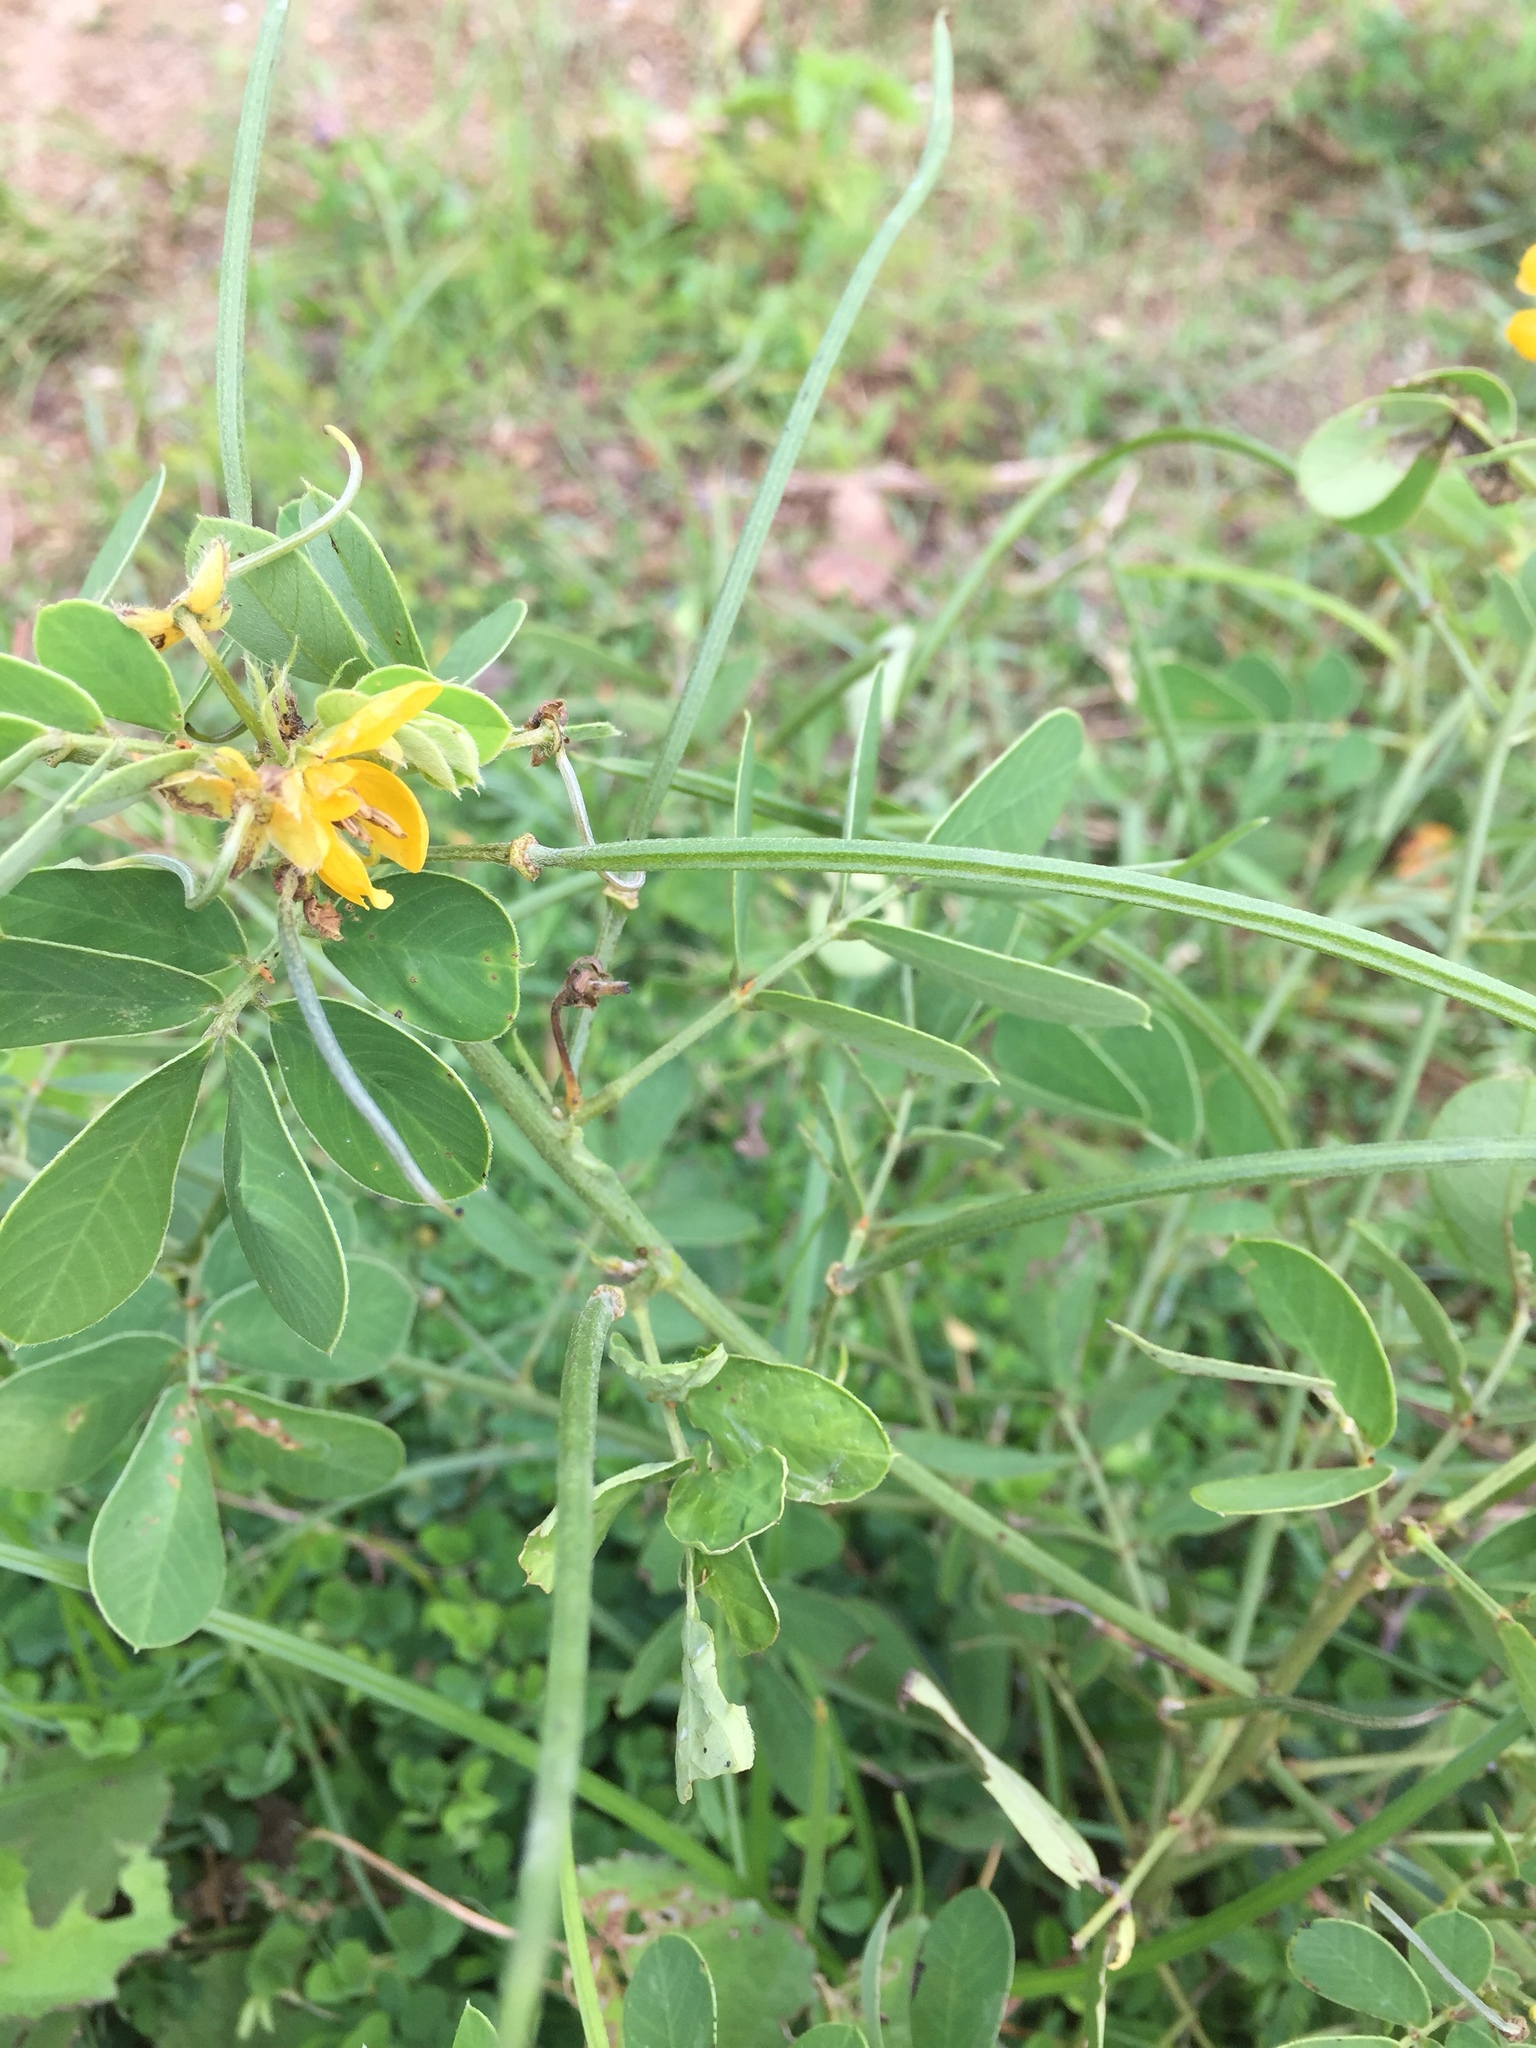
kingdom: Plantae
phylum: Tracheophyta
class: Magnoliopsida
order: Fabales
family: Fabaceae
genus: Senna
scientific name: Senna obtusifolia
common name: Java-bean
